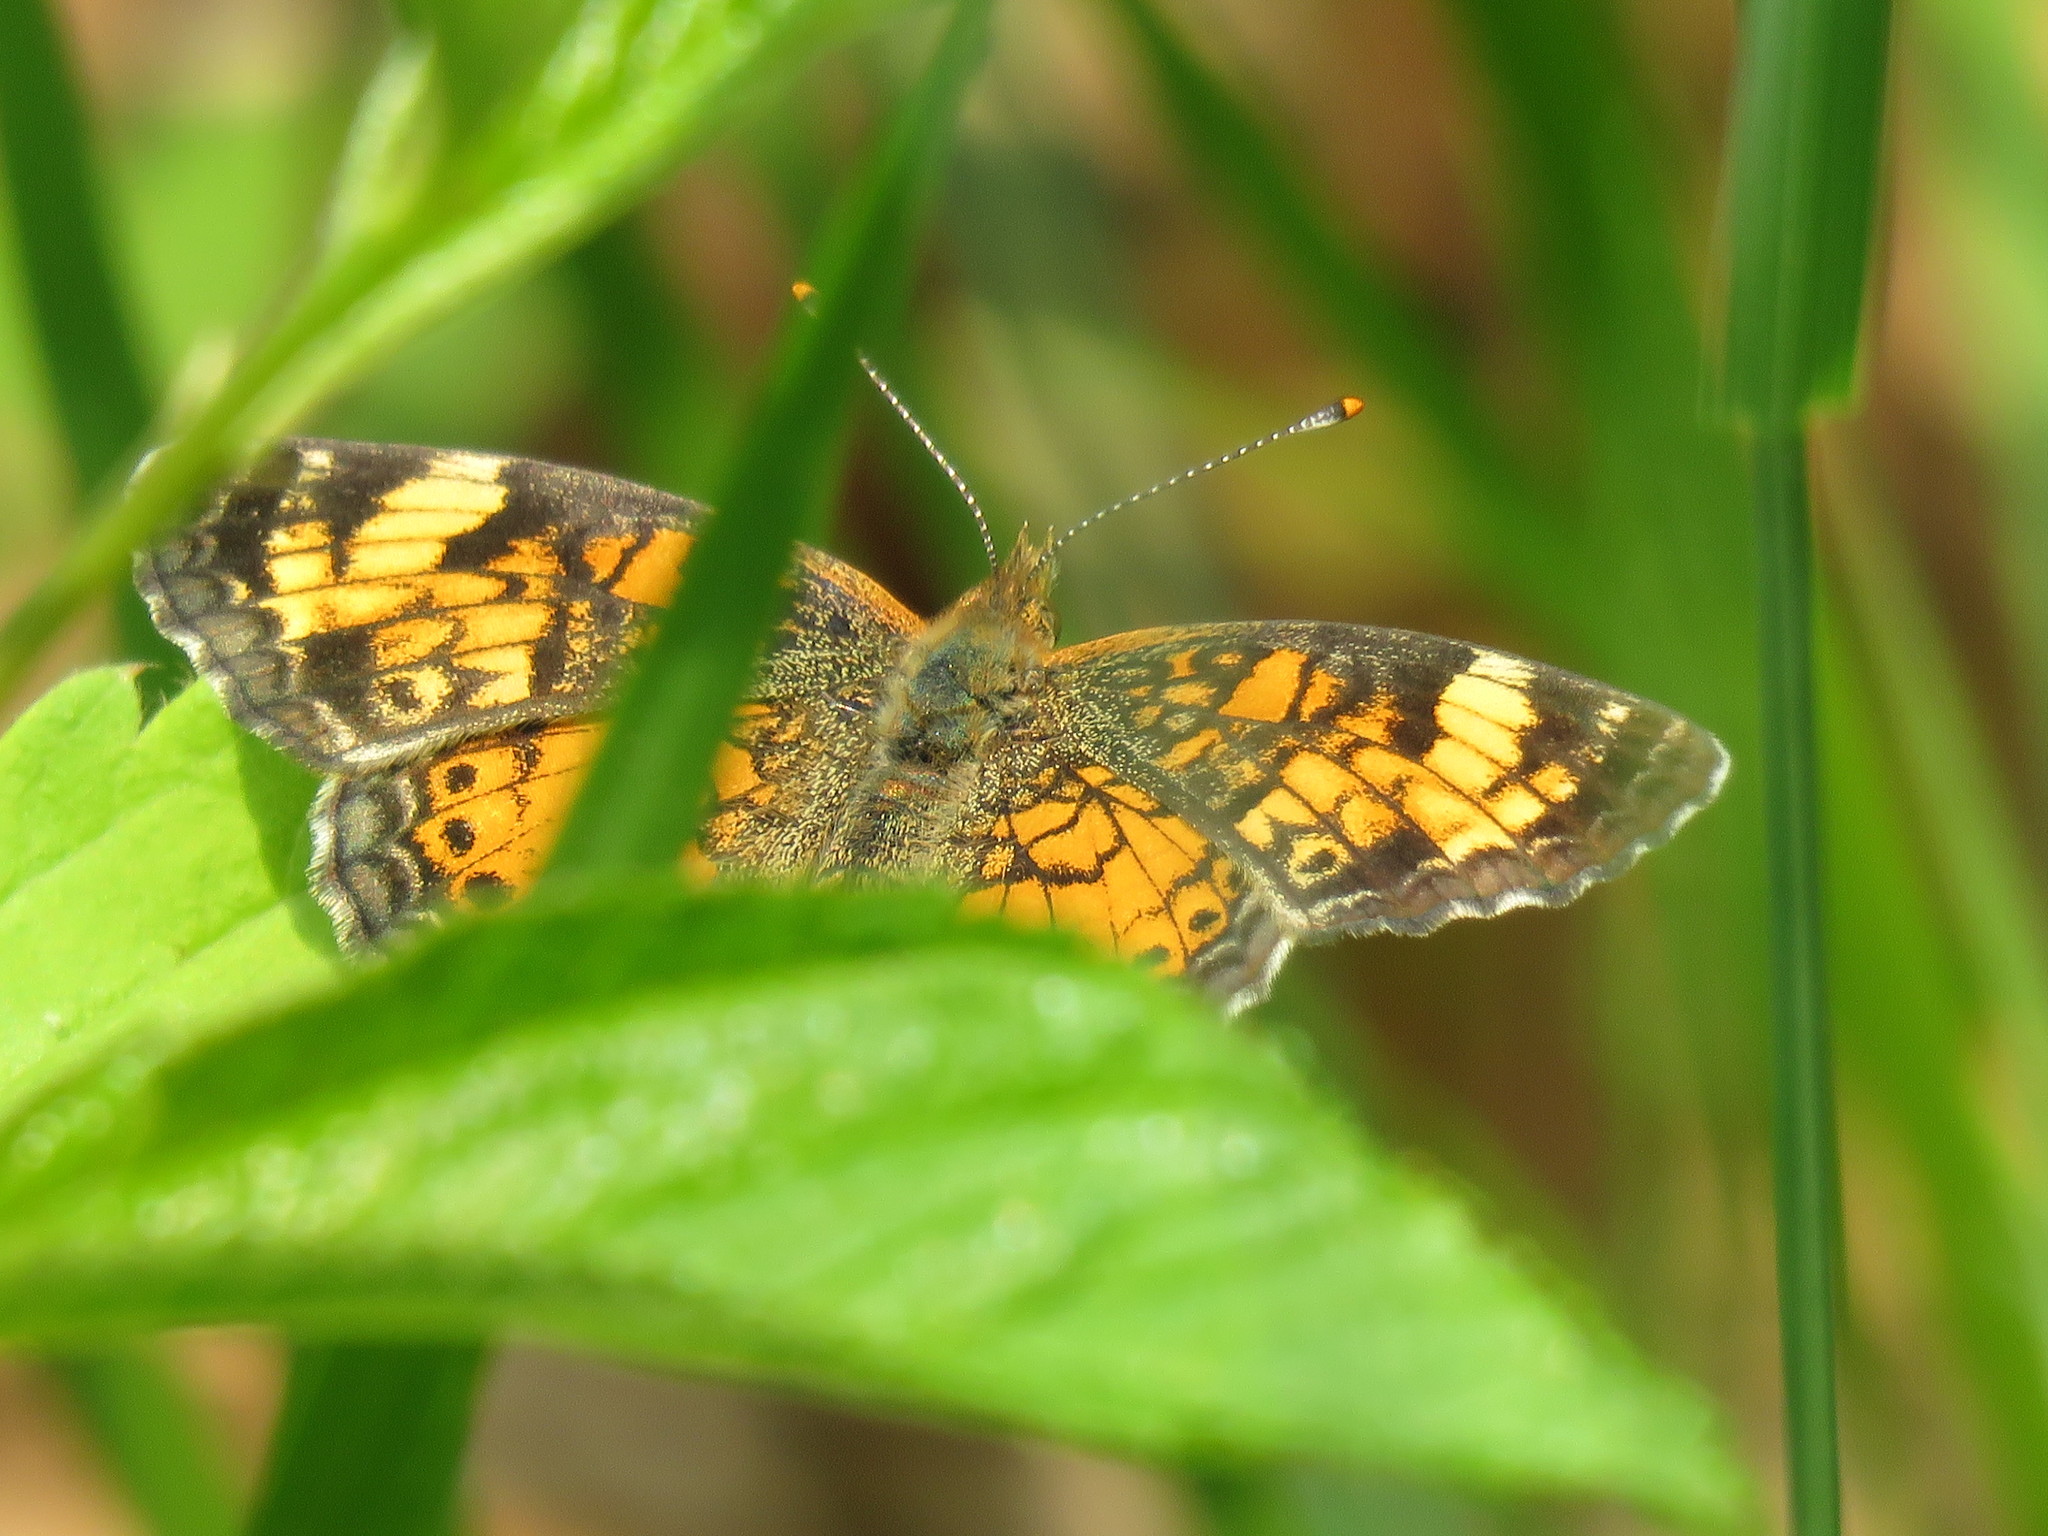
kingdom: Animalia
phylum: Arthropoda
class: Insecta
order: Lepidoptera
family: Nymphalidae
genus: Phyciodes
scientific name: Phyciodes tharos
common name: Pearl crescent
